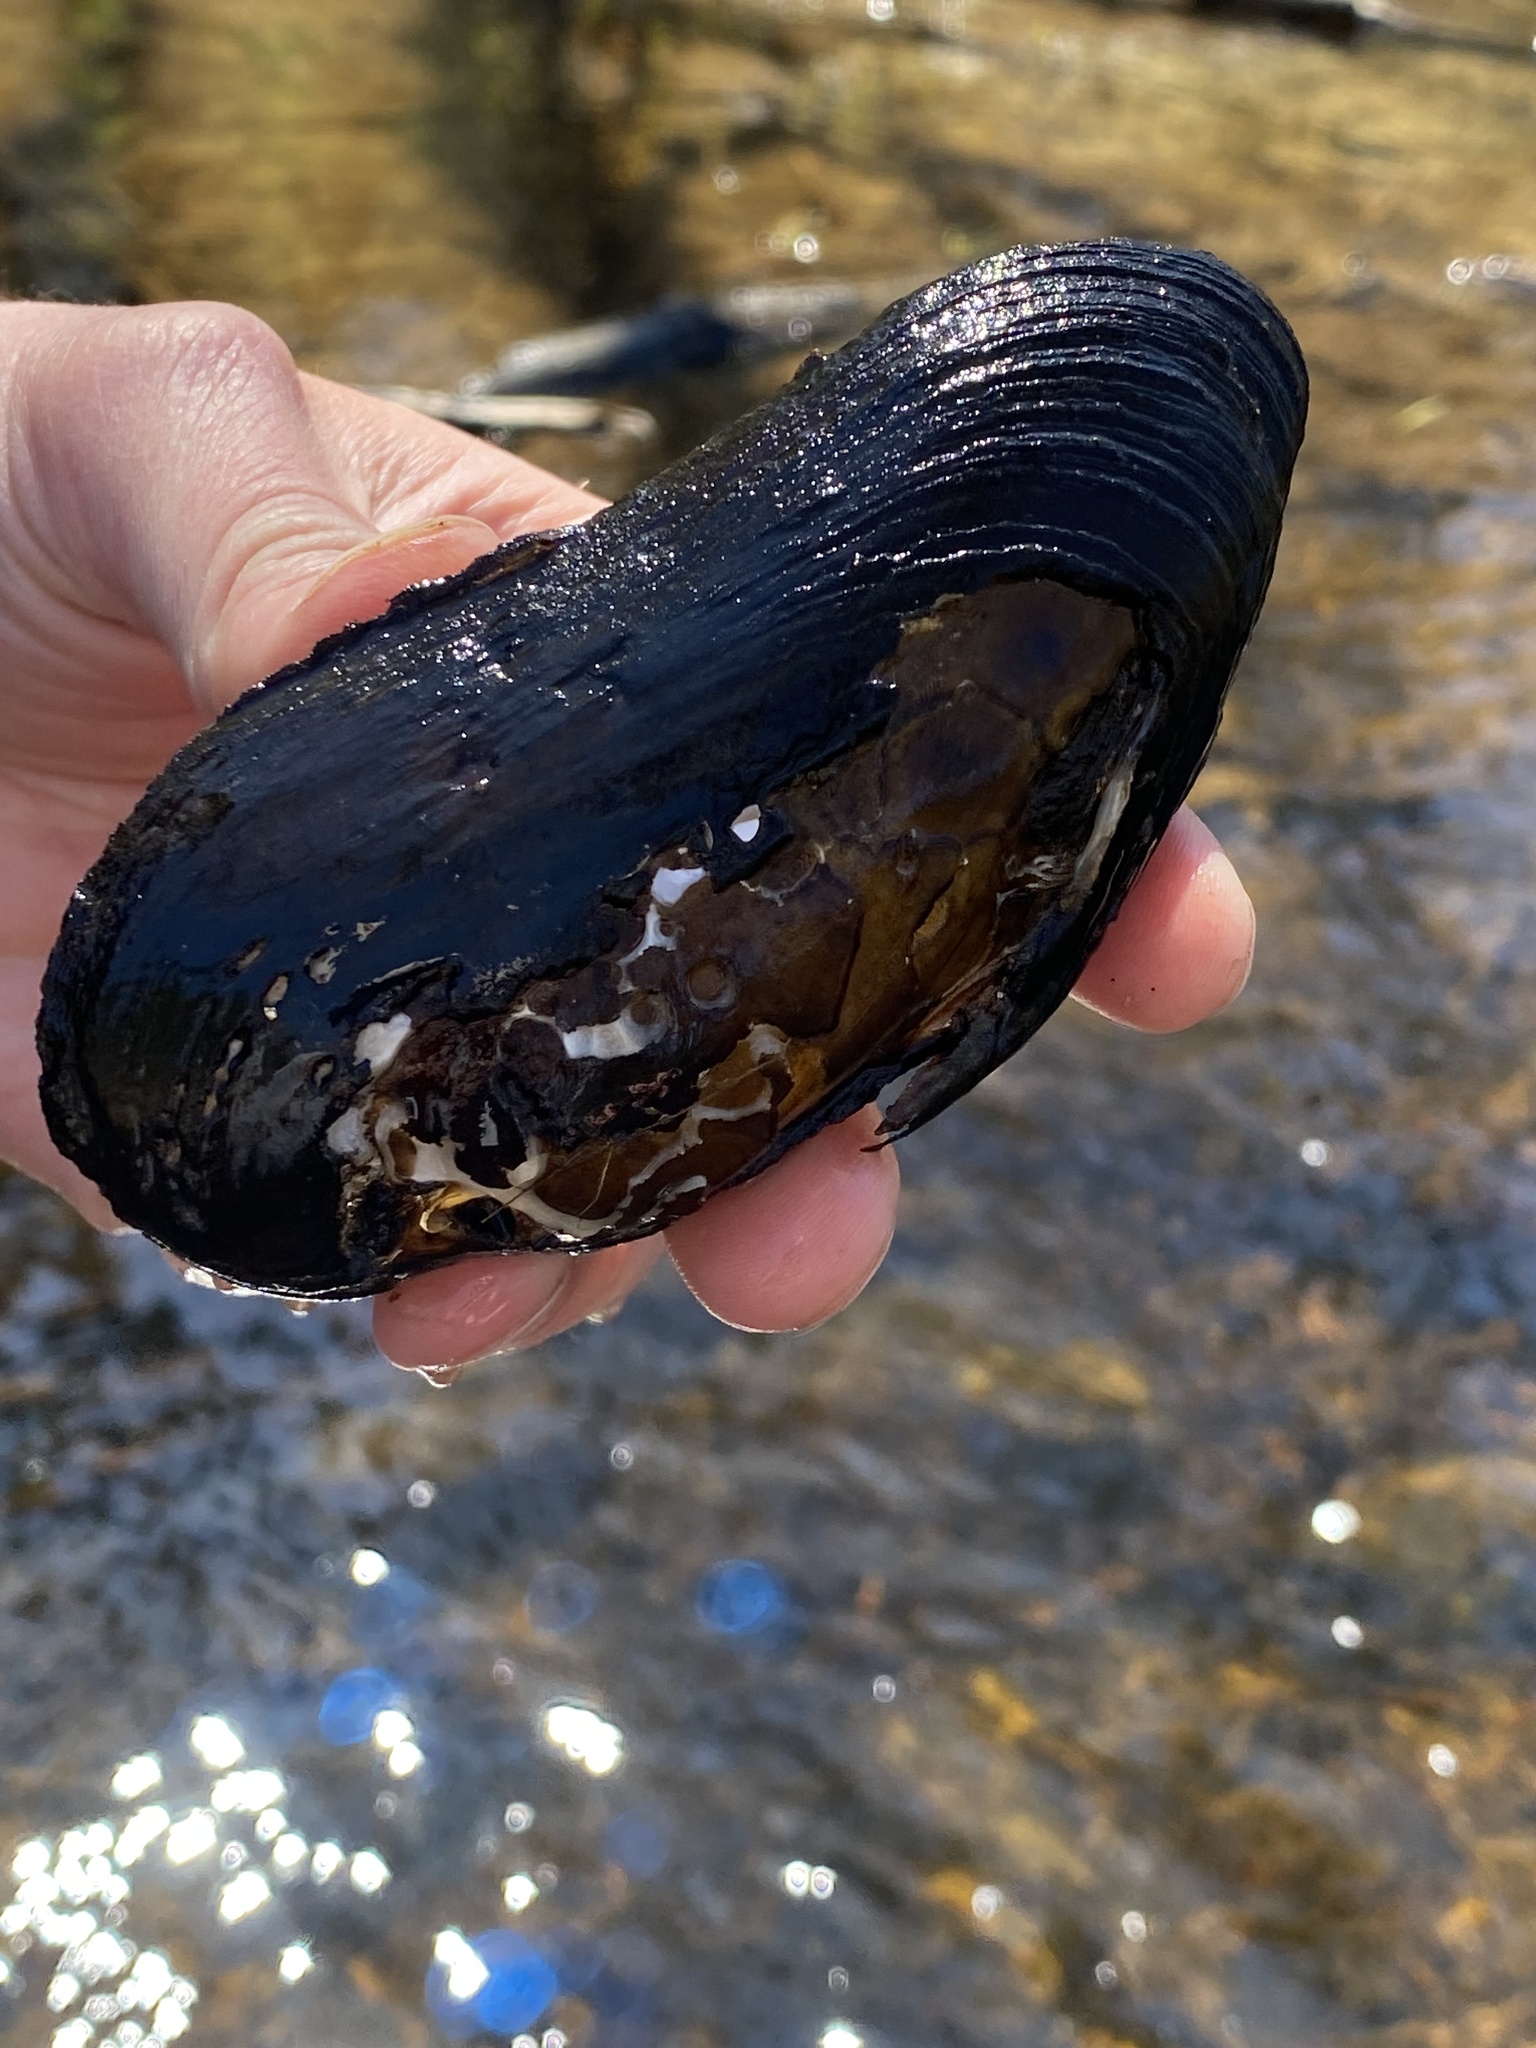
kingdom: Animalia
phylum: Mollusca
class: Bivalvia
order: Unionida
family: Margaritiferidae
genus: Margaritifera
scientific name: Margaritifera margaritifera
